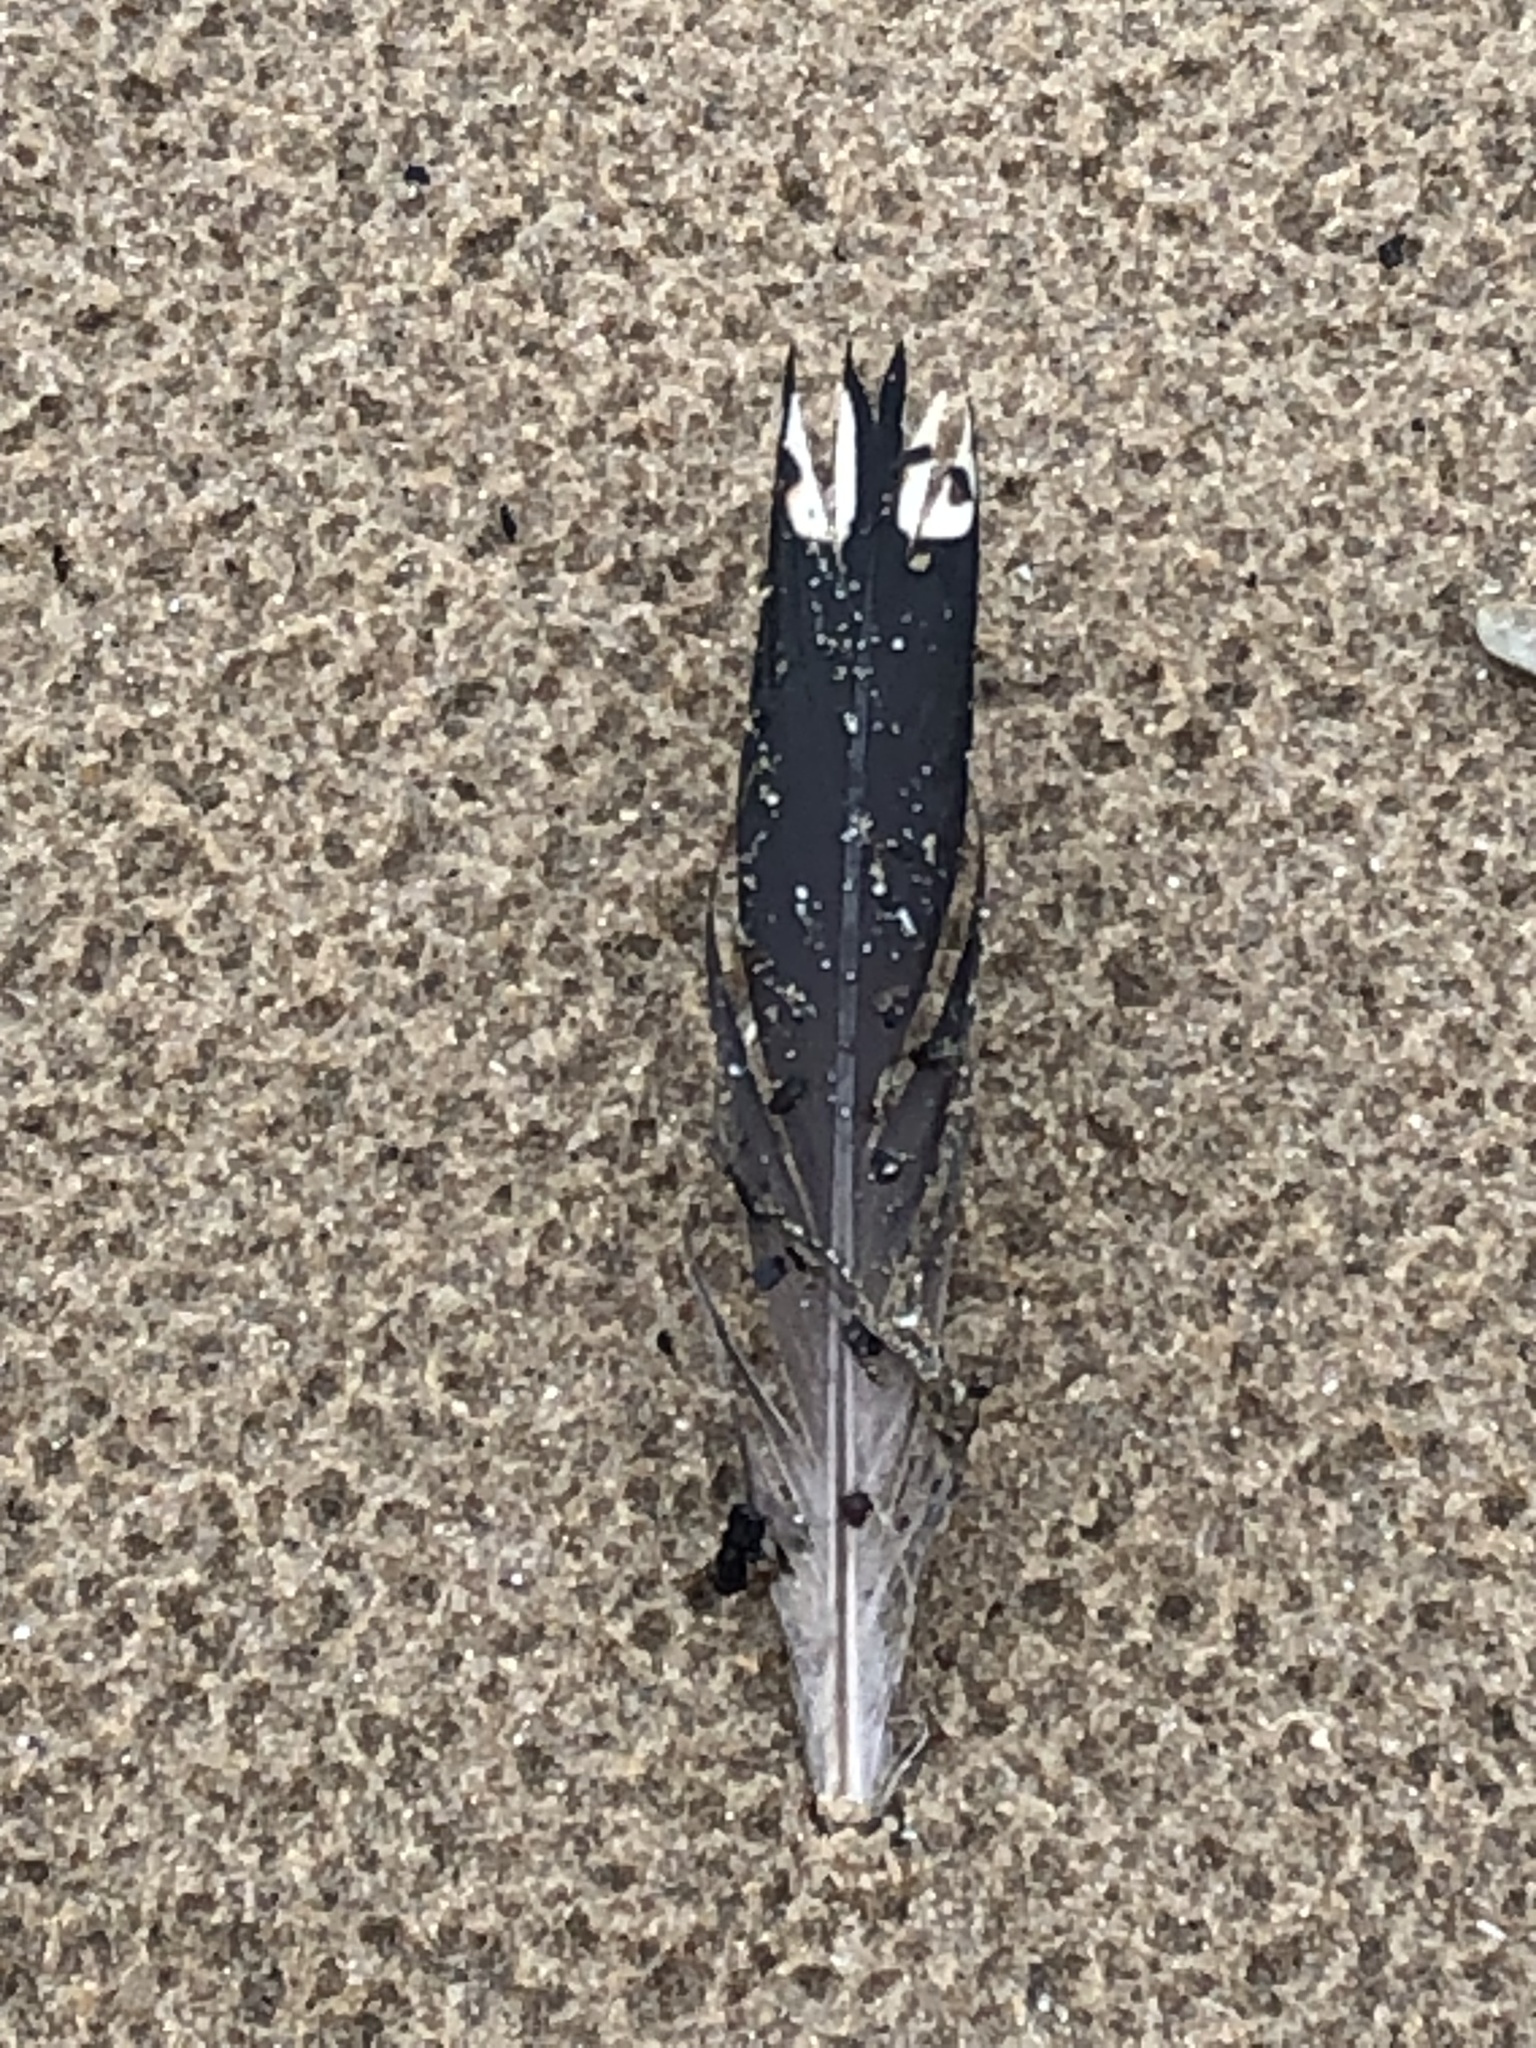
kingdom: Animalia
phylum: Chordata
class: Aves
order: Gaviiformes
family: Gaviidae
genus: Gavia
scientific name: Gavia immer
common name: Common loon
